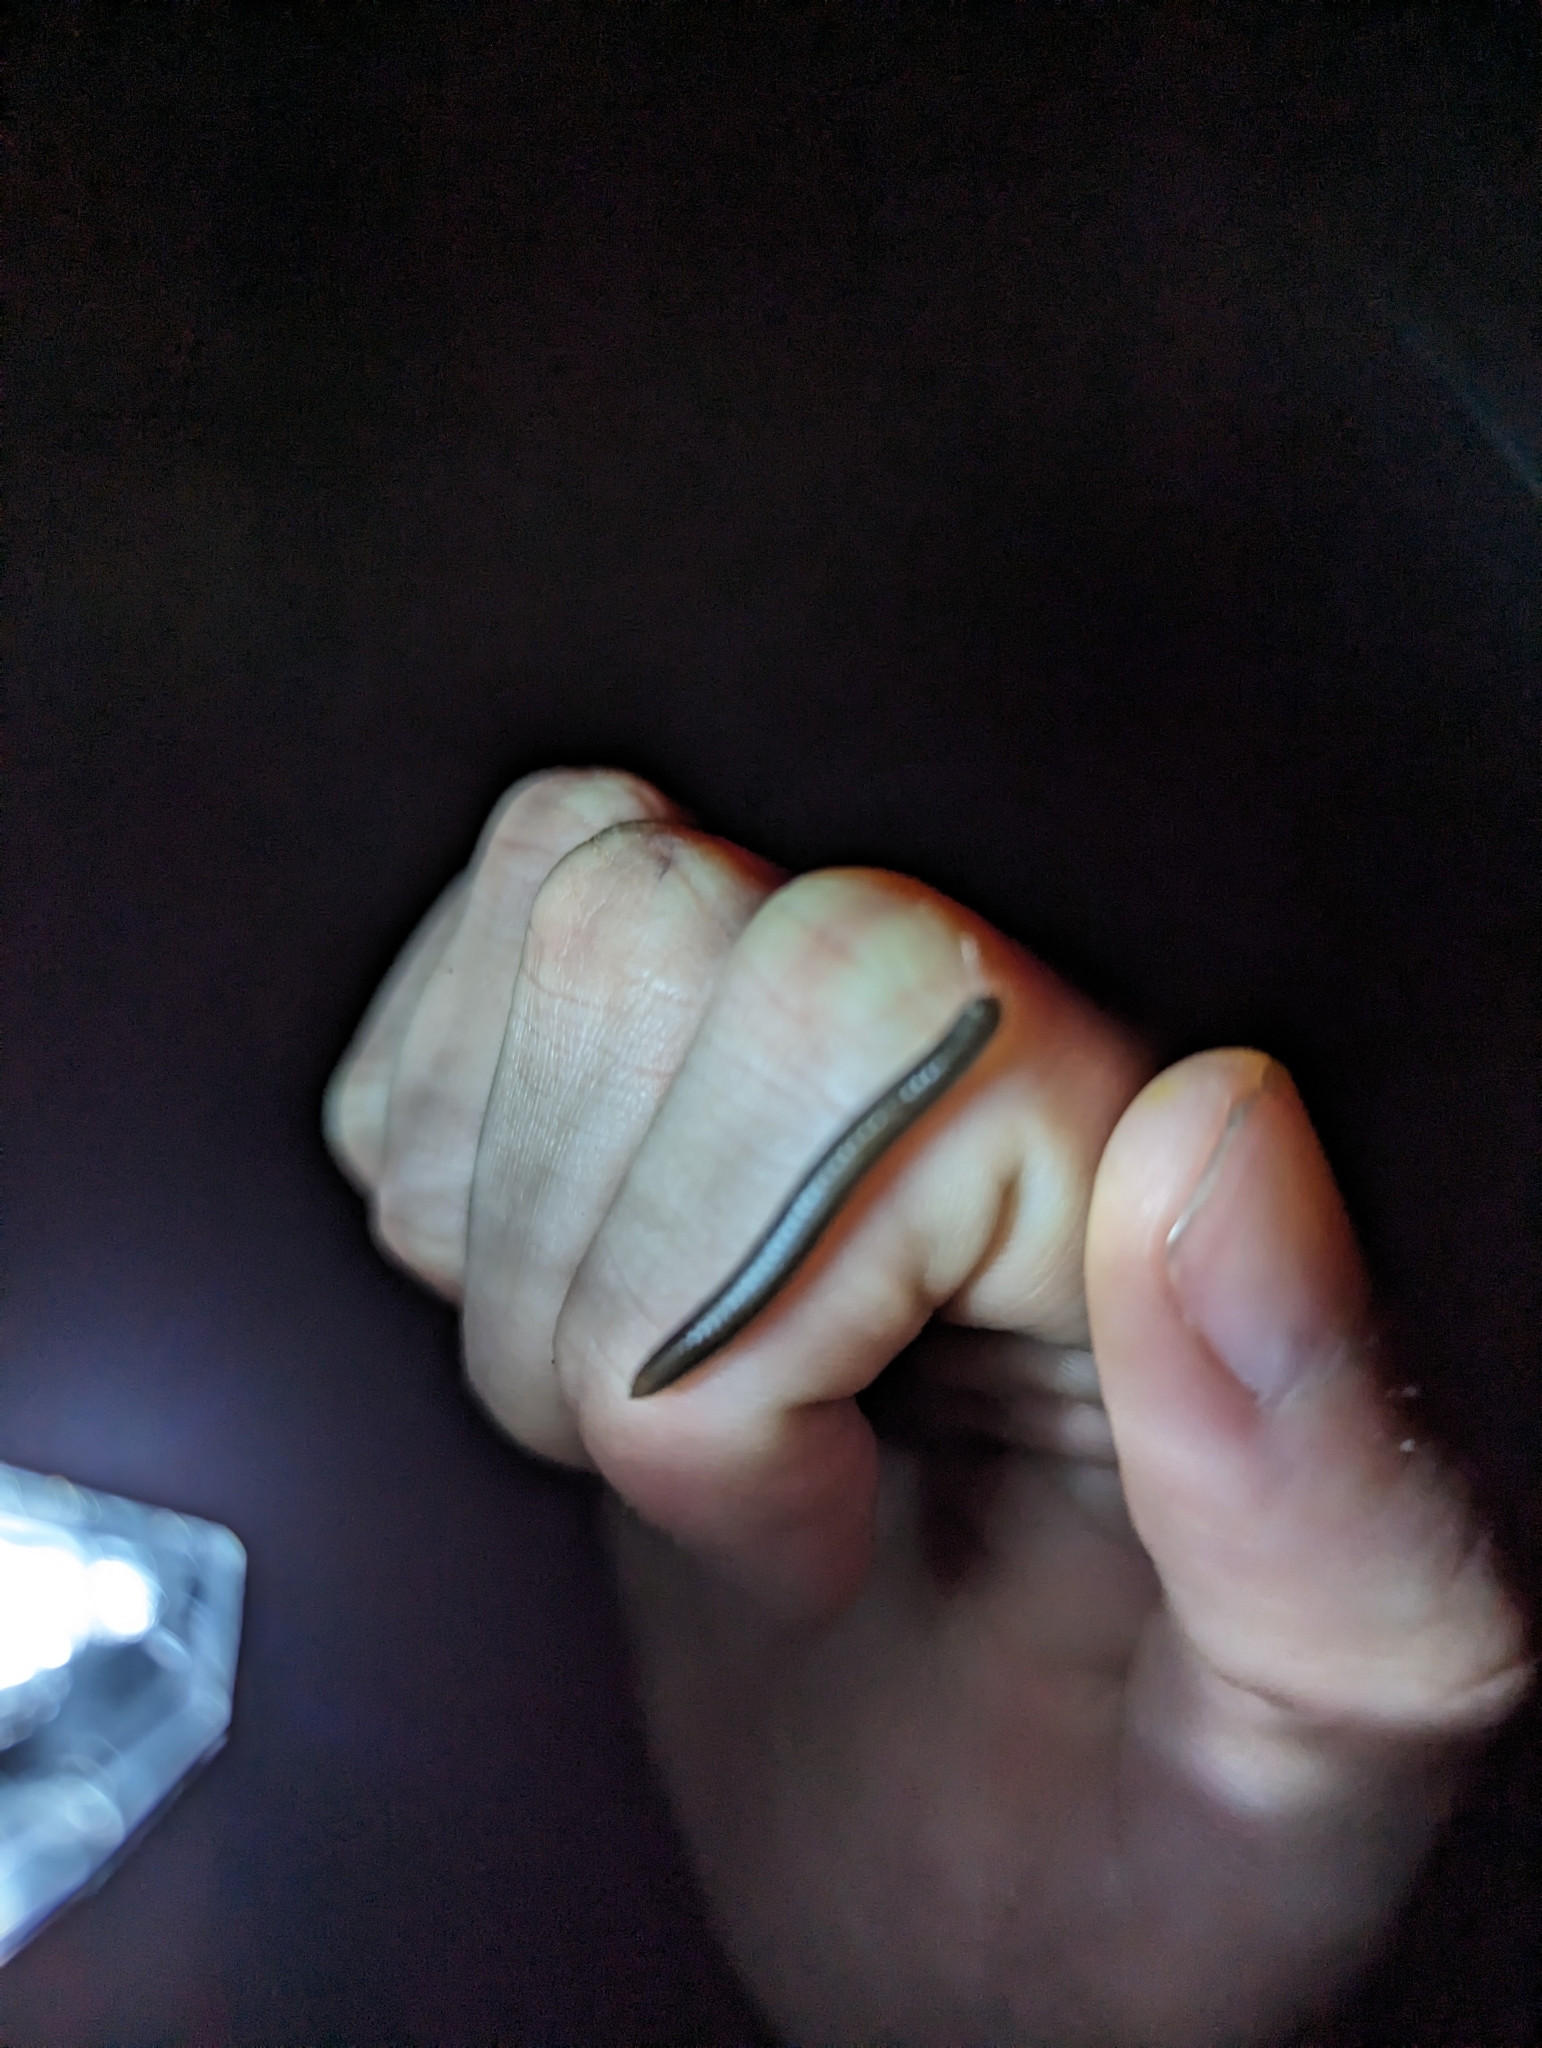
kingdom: Animalia
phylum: Arthropoda
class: Diplopoda
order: Julida
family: Julidae
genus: Ommatoiulus
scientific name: Ommatoiulus moreleti
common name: Portuguese millipede
